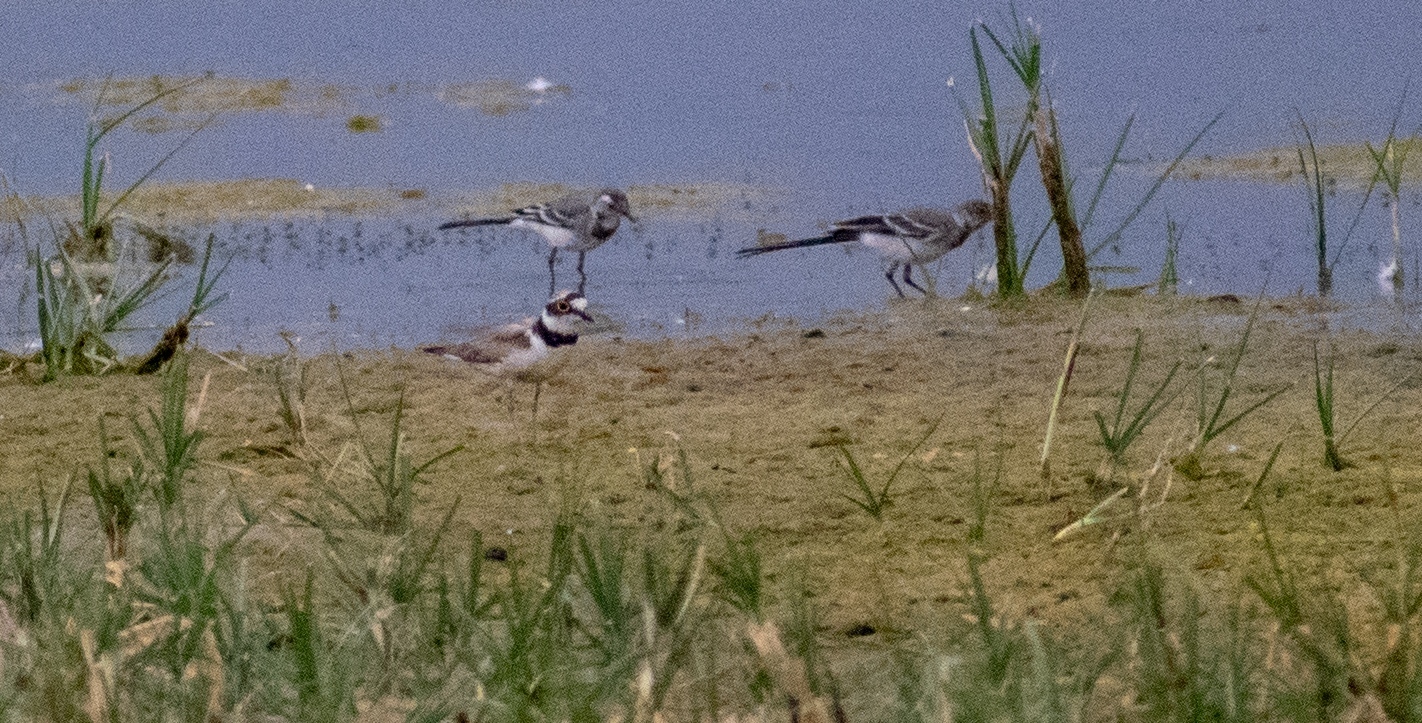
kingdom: Animalia
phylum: Chordata
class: Aves
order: Charadriiformes
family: Charadriidae
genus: Charadrius
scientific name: Charadrius dubius
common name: Little ringed plover
